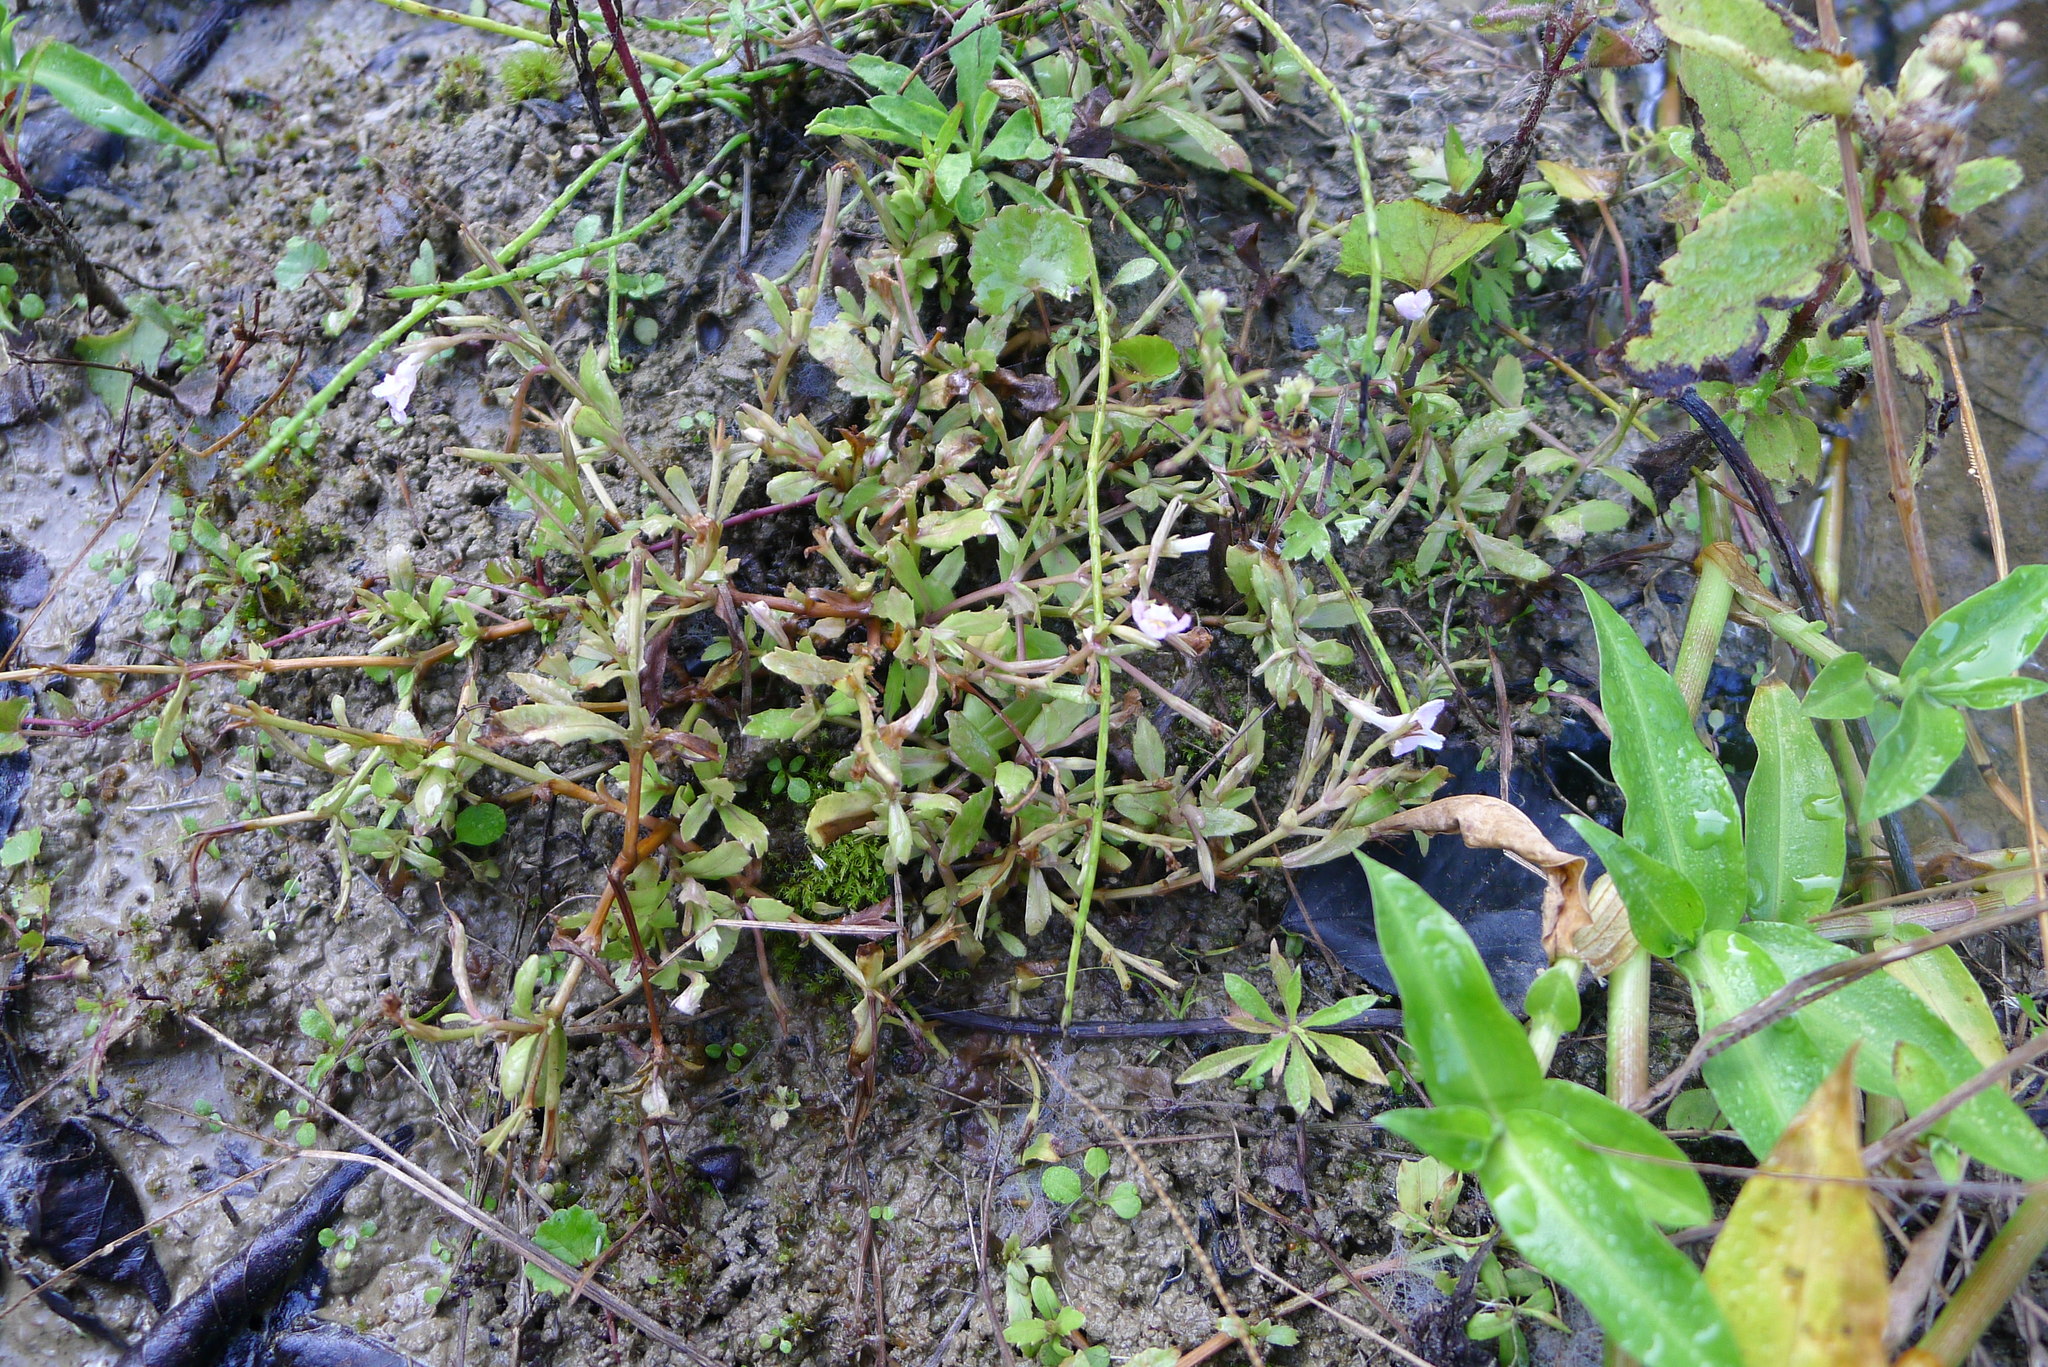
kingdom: Plantae
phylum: Tracheophyta
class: Magnoliopsida
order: Lamiales
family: Linderniaceae
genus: Bonnaya
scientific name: Bonnaya antipoda
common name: Sparrow false pimpernel
